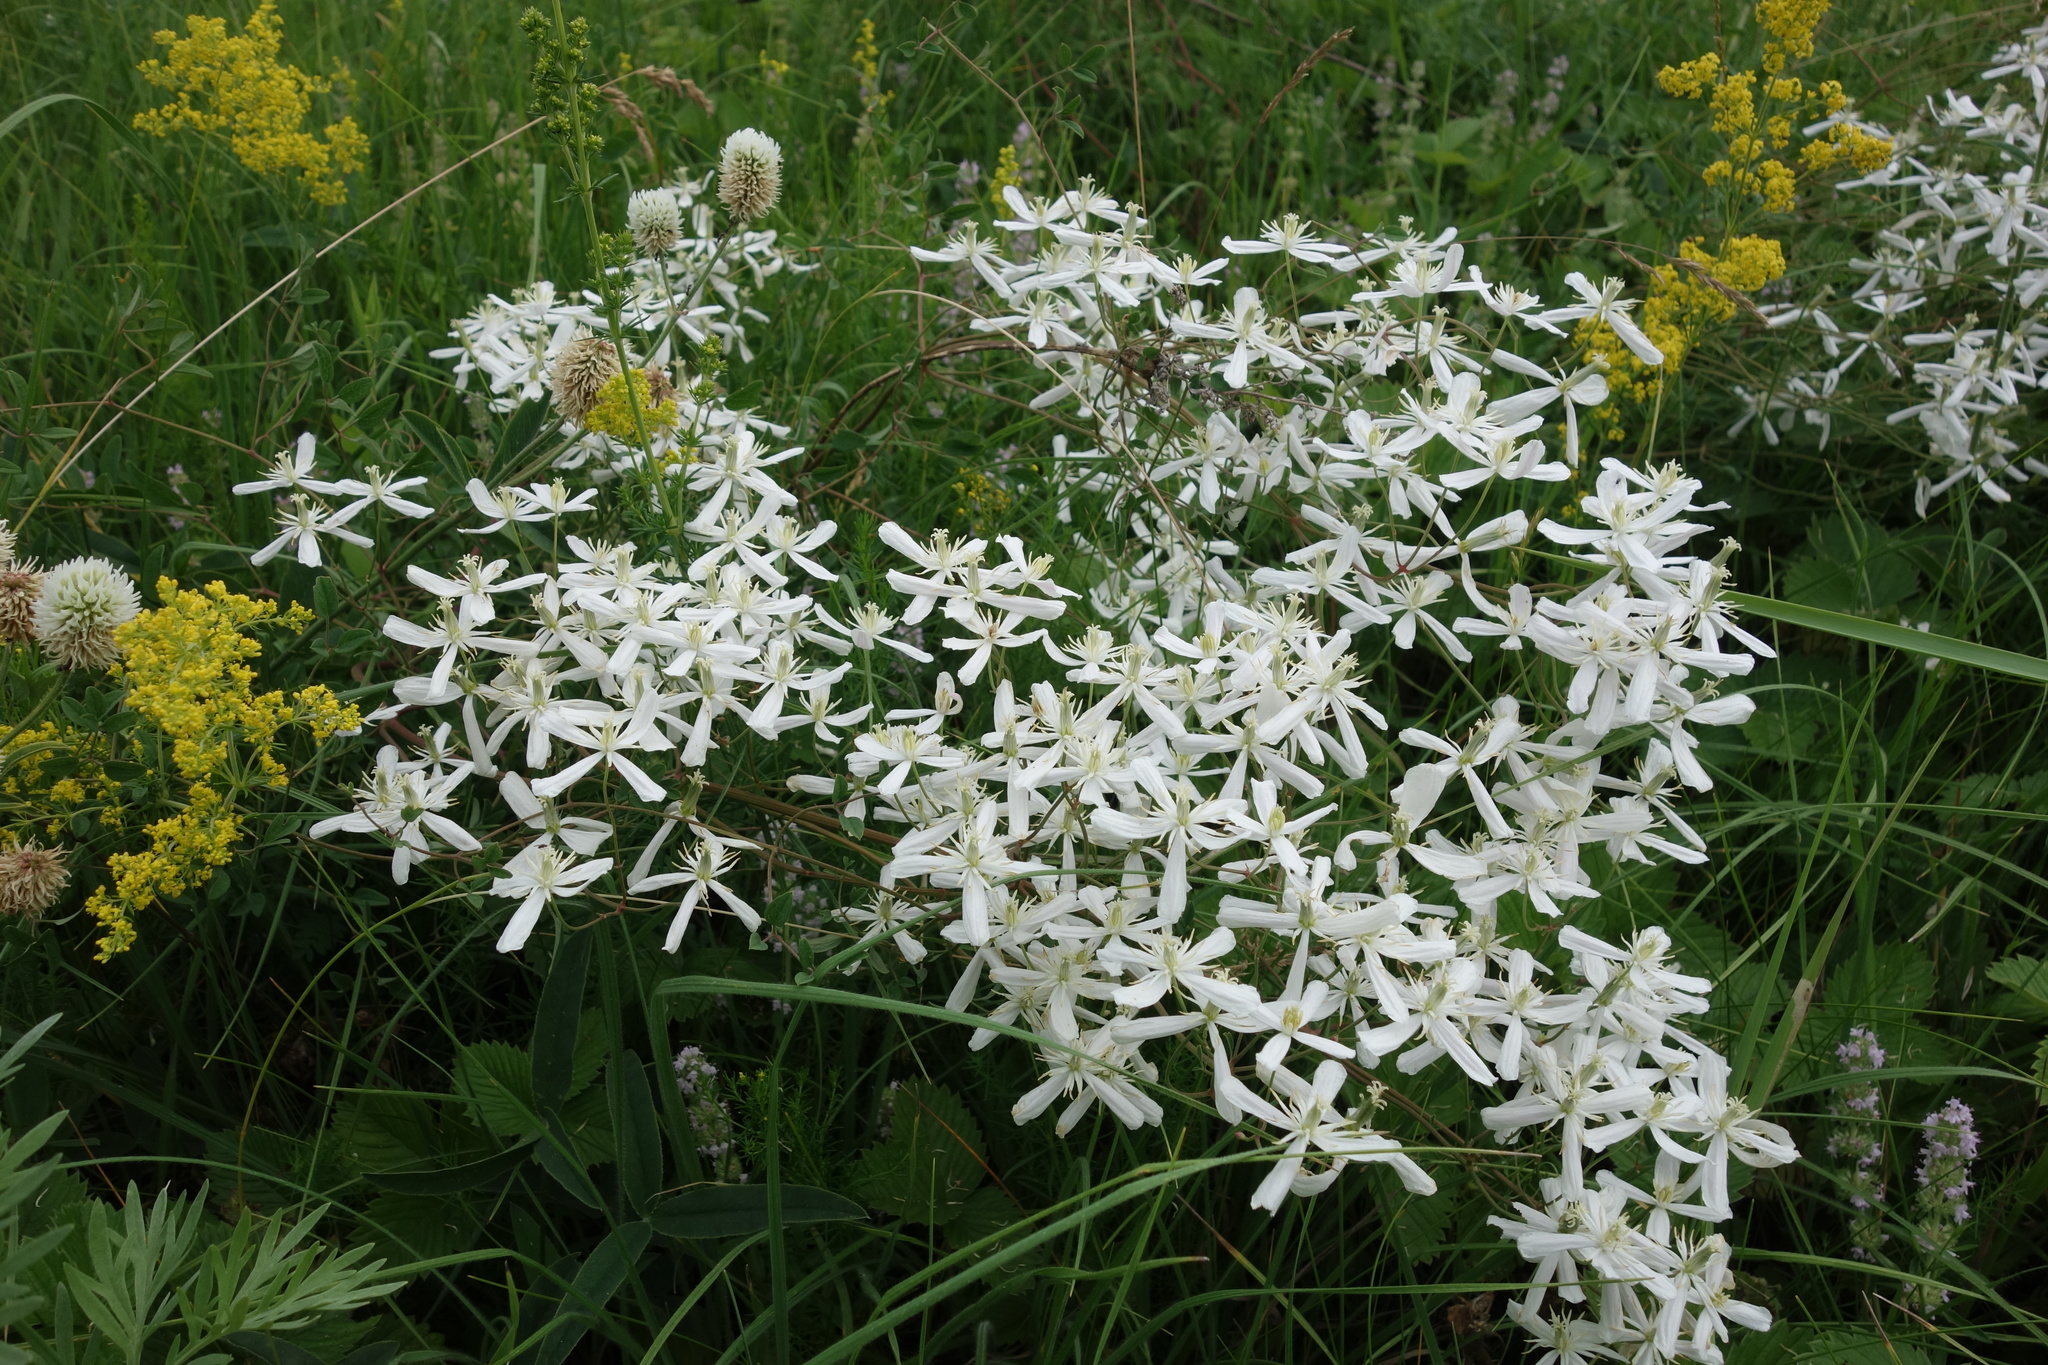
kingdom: Plantae
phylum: Tracheophyta
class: Magnoliopsida
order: Ranunculales
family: Ranunculaceae
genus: Clematis
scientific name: Clematis lathyrifolia
